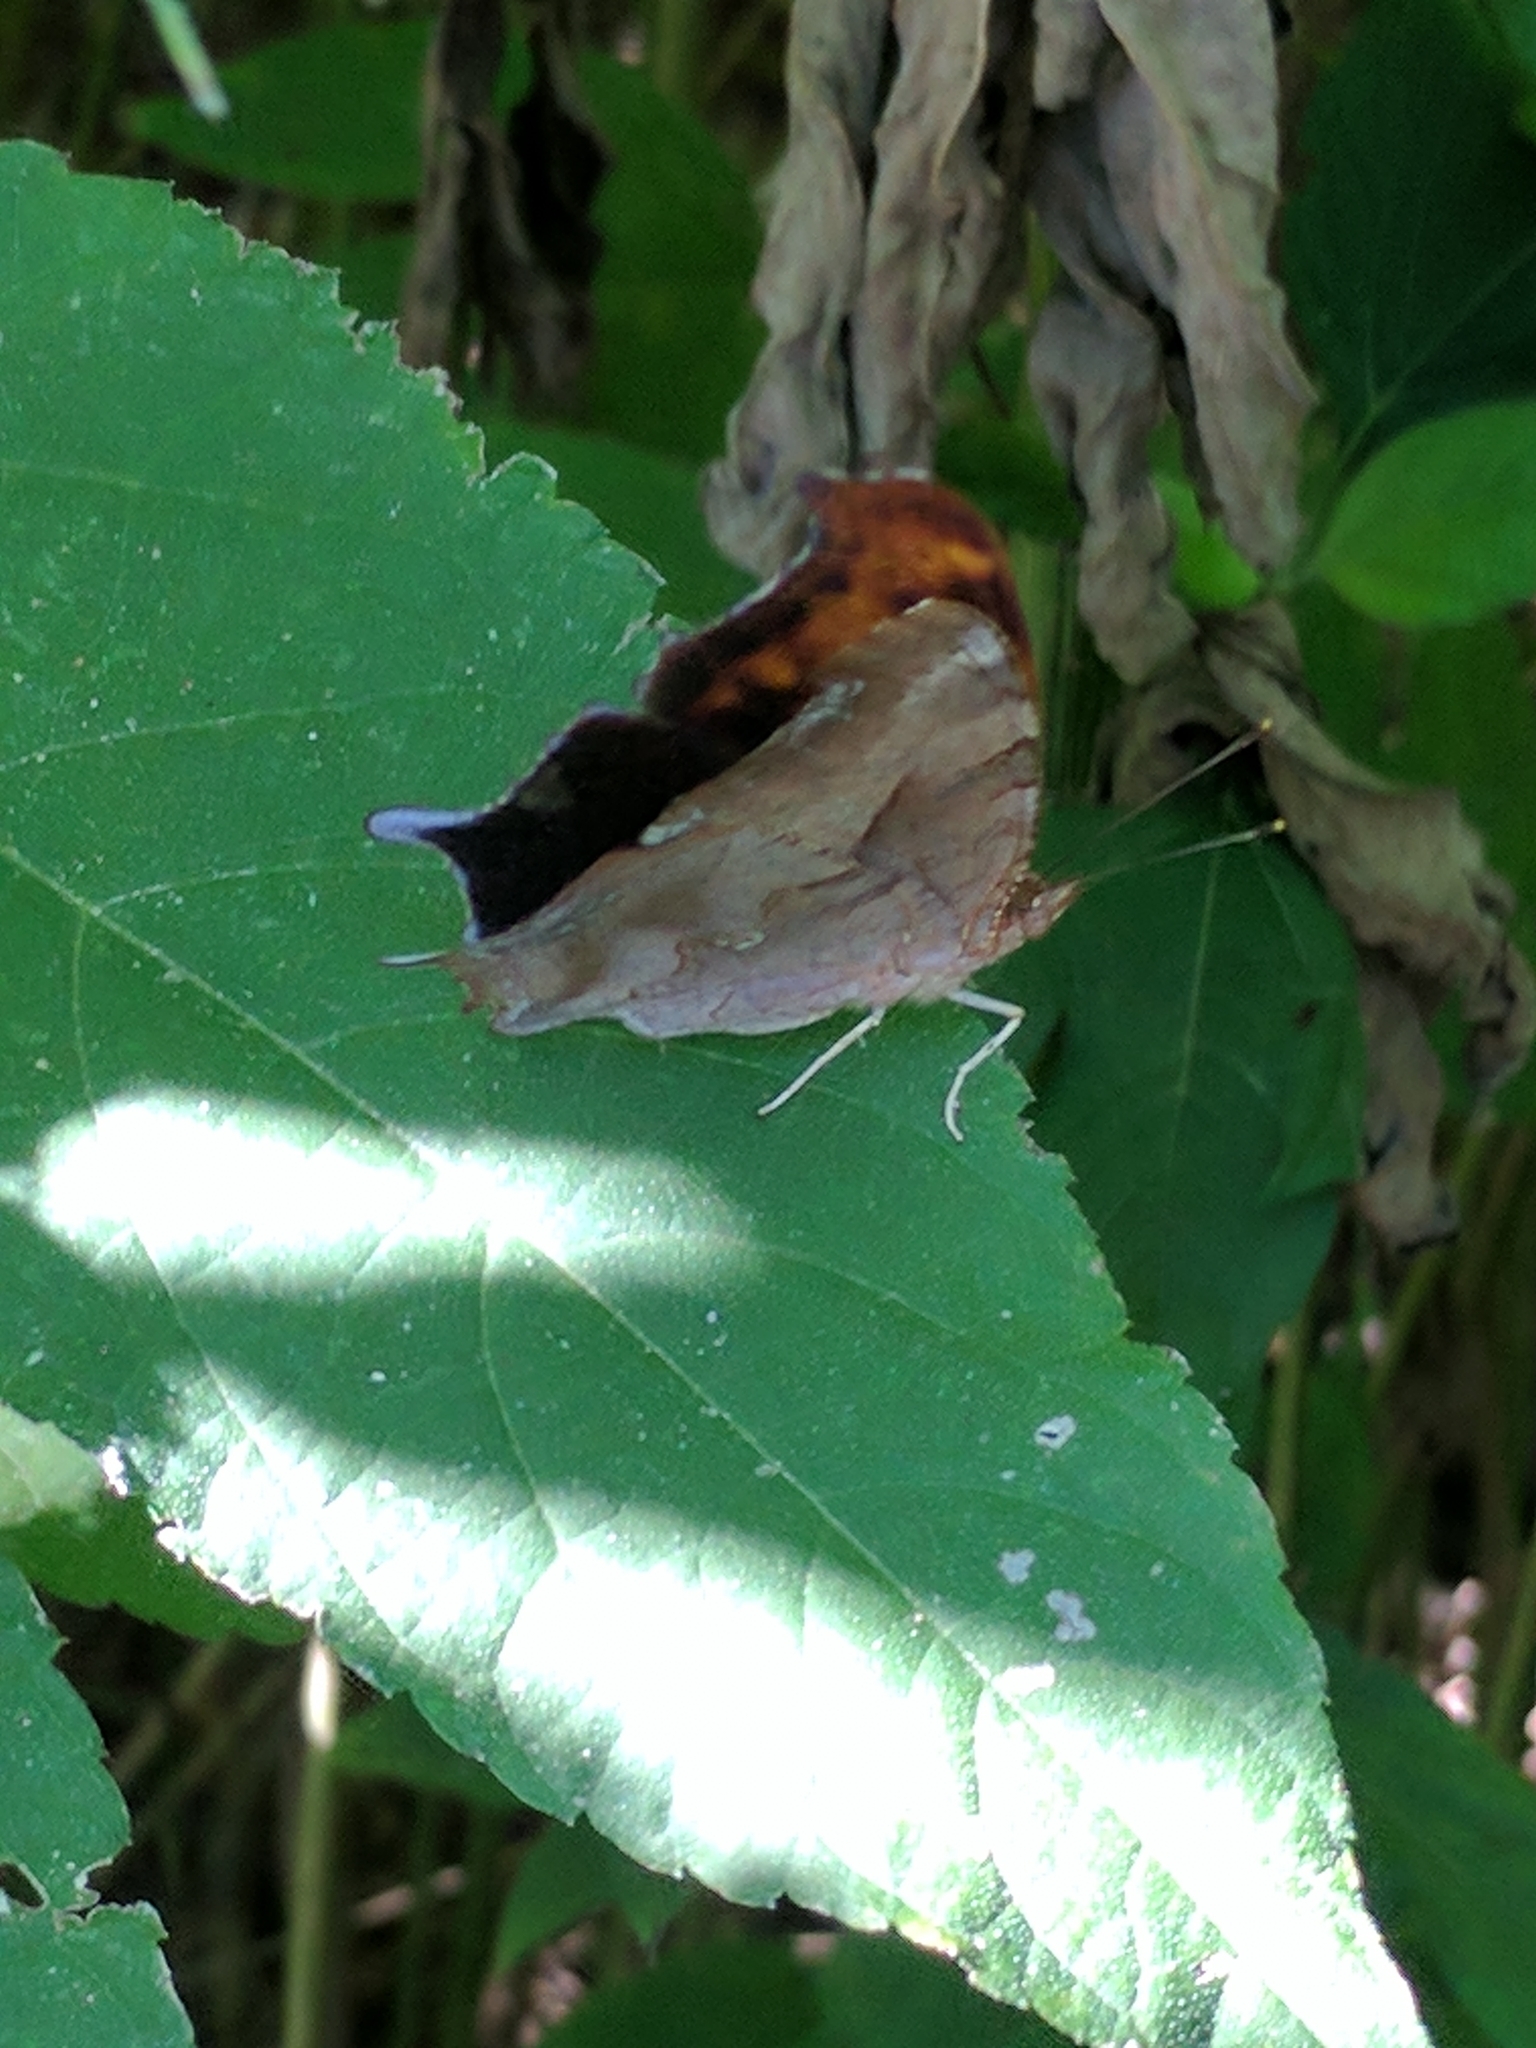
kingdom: Animalia
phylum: Arthropoda
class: Insecta
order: Lepidoptera
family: Nymphalidae
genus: Polygonia
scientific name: Polygonia interrogationis
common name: Question mark
